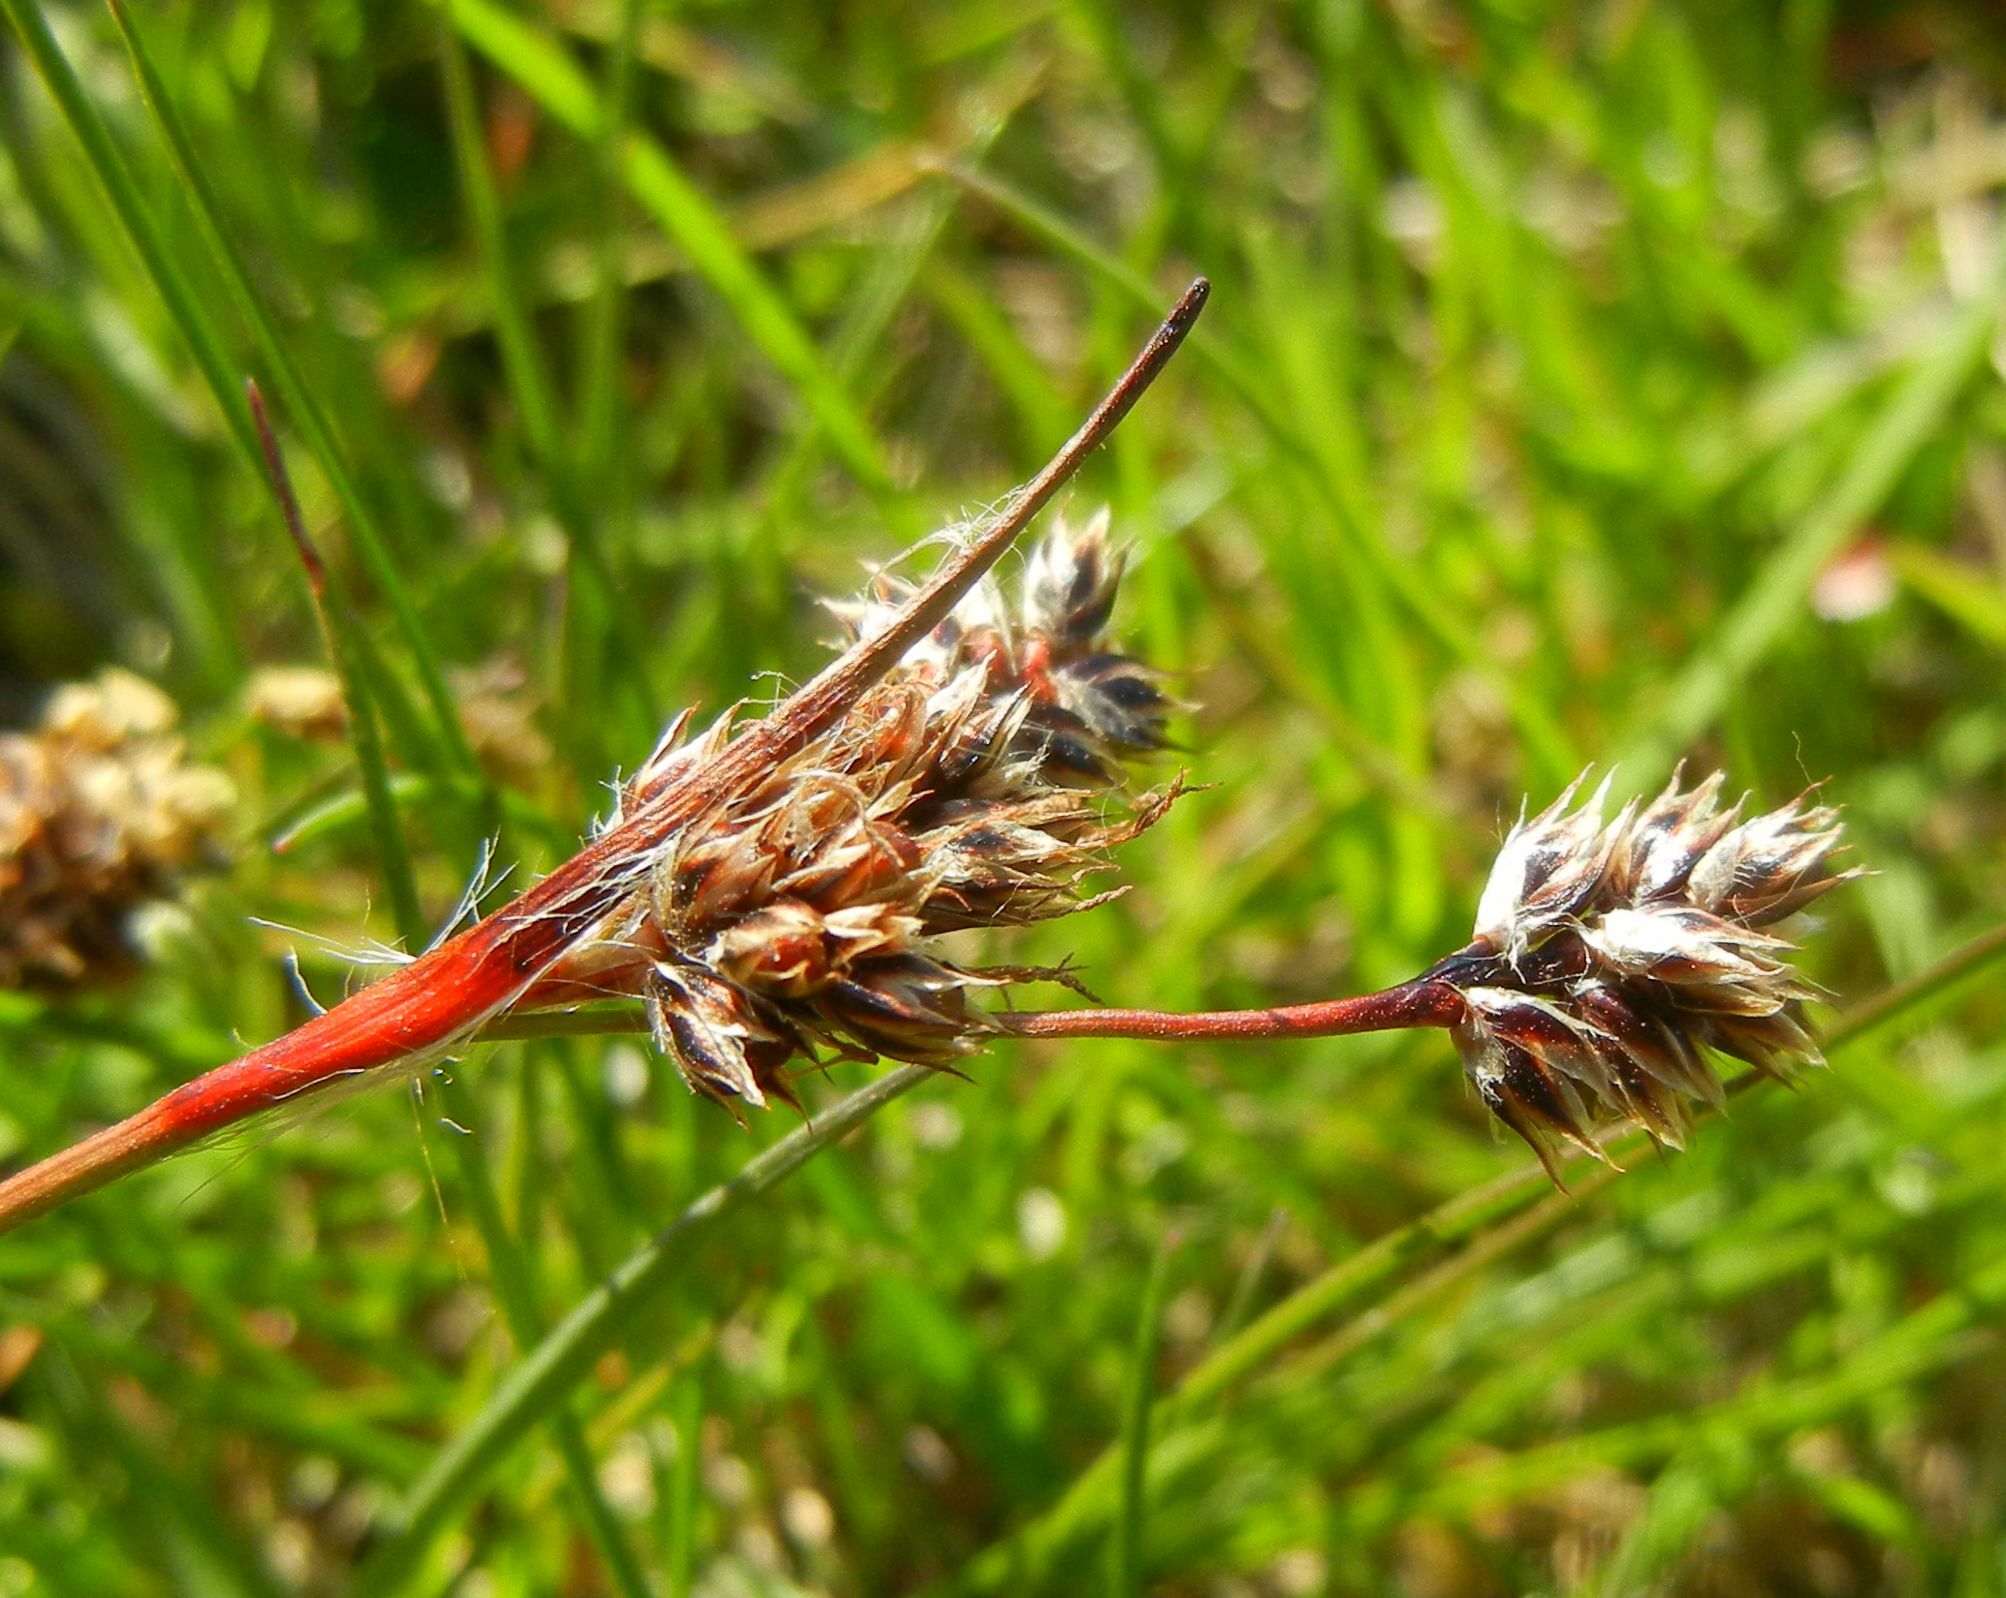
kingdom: Plantae
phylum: Tracheophyta
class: Liliopsida
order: Poales
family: Juncaceae
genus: Luzula
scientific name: Luzula campestris
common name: Field wood-rush
